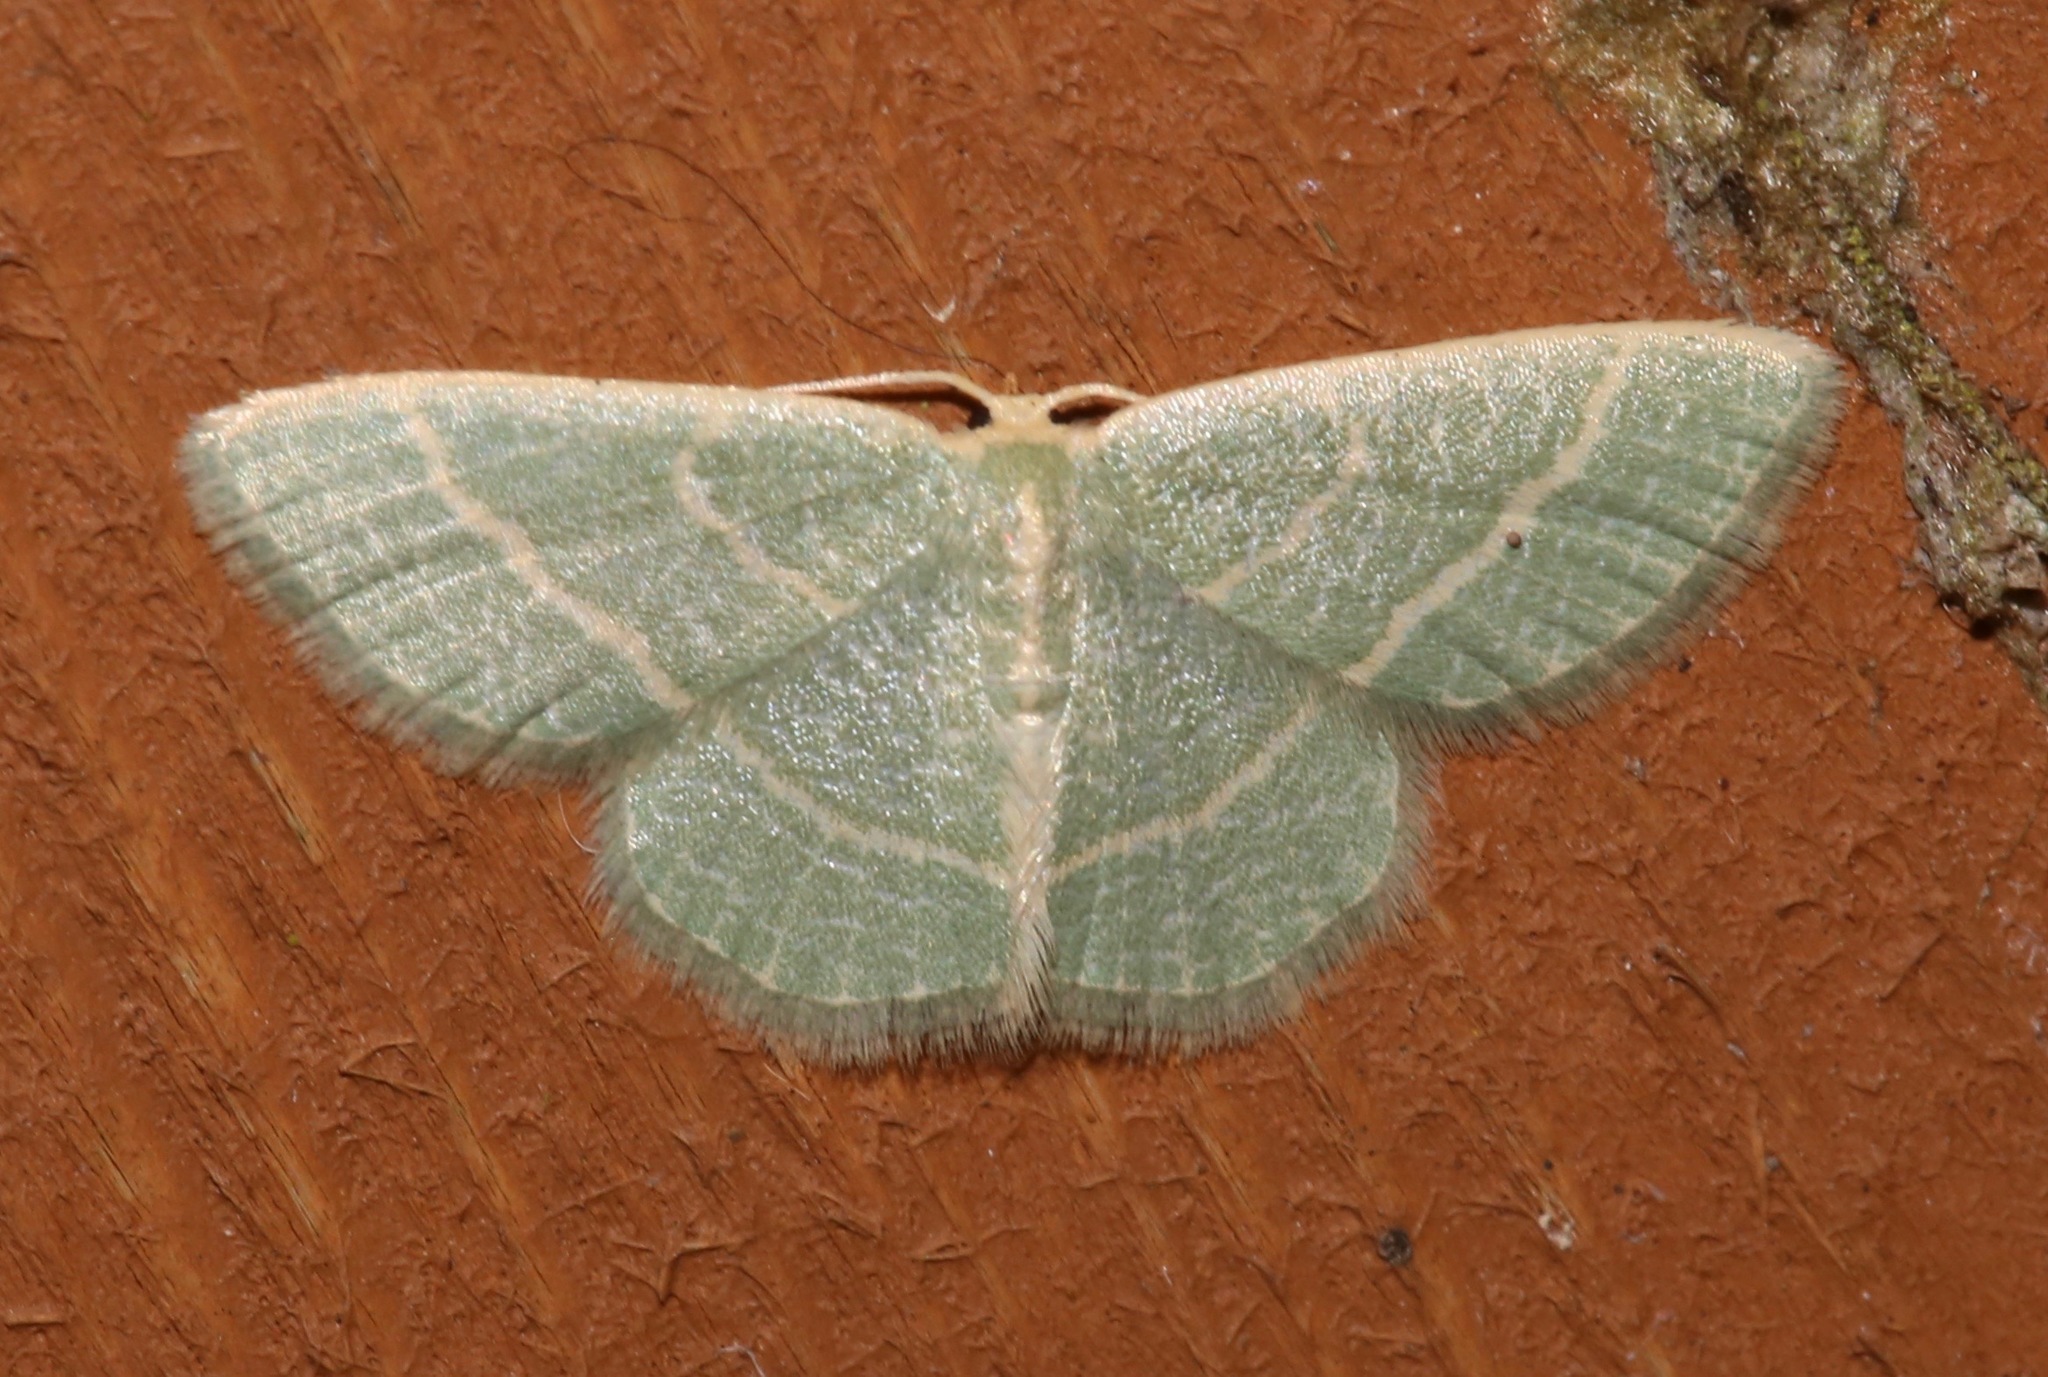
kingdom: Animalia
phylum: Arthropoda
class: Insecta
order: Lepidoptera
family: Geometridae
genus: Chlorochlamys
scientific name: Chlorochlamys chloroleucaria
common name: Blackberry looper
